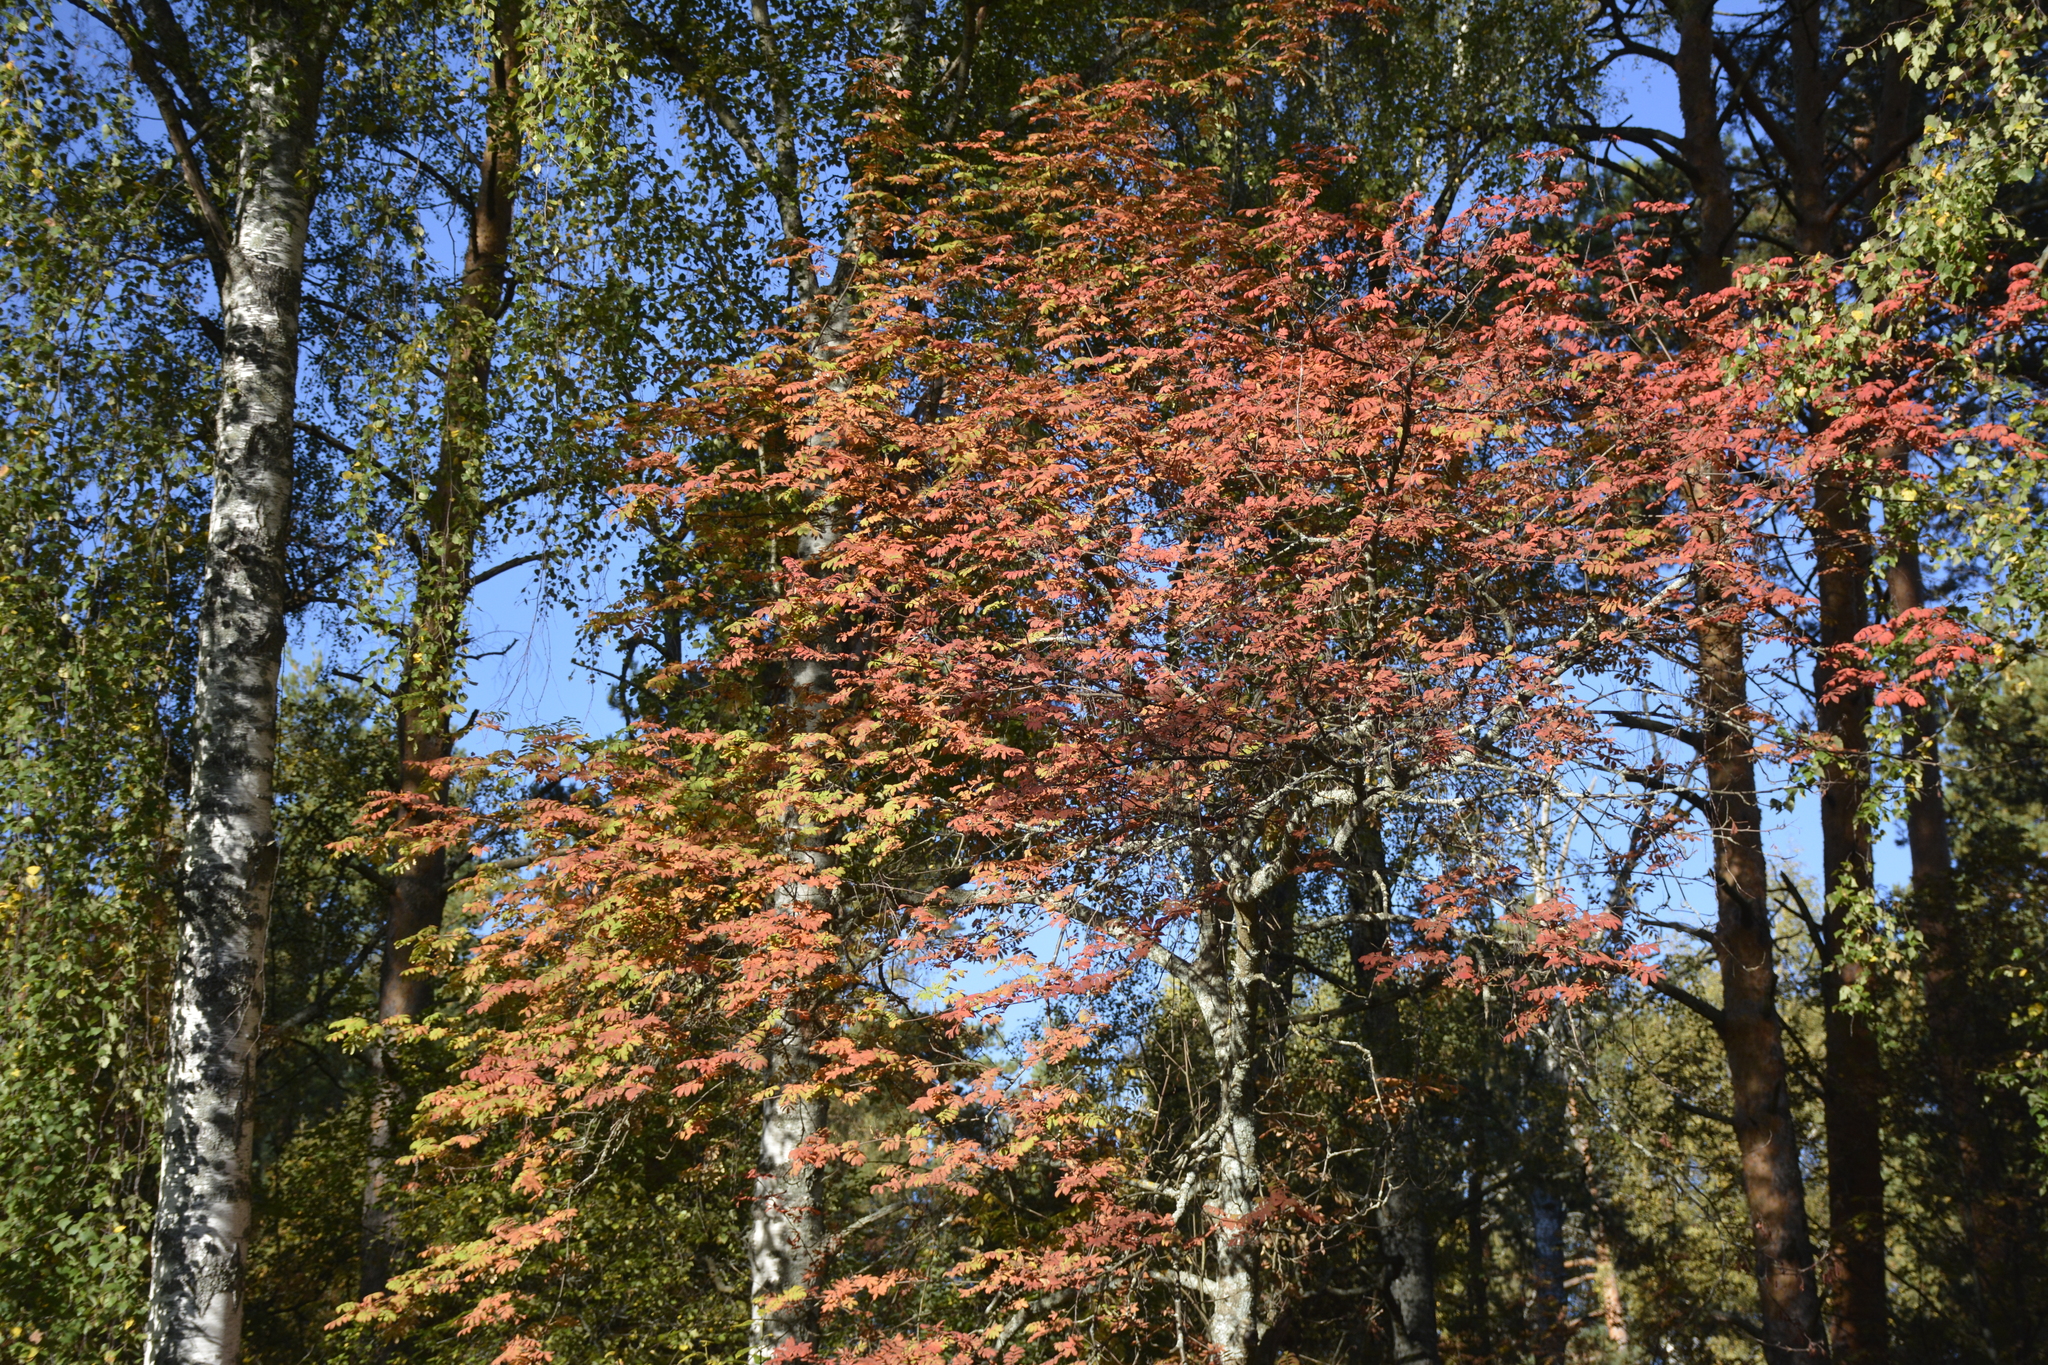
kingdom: Plantae
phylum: Tracheophyta
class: Magnoliopsida
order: Rosales
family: Rosaceae
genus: Sorbus
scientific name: Sorbus aucuparia
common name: Rowan
